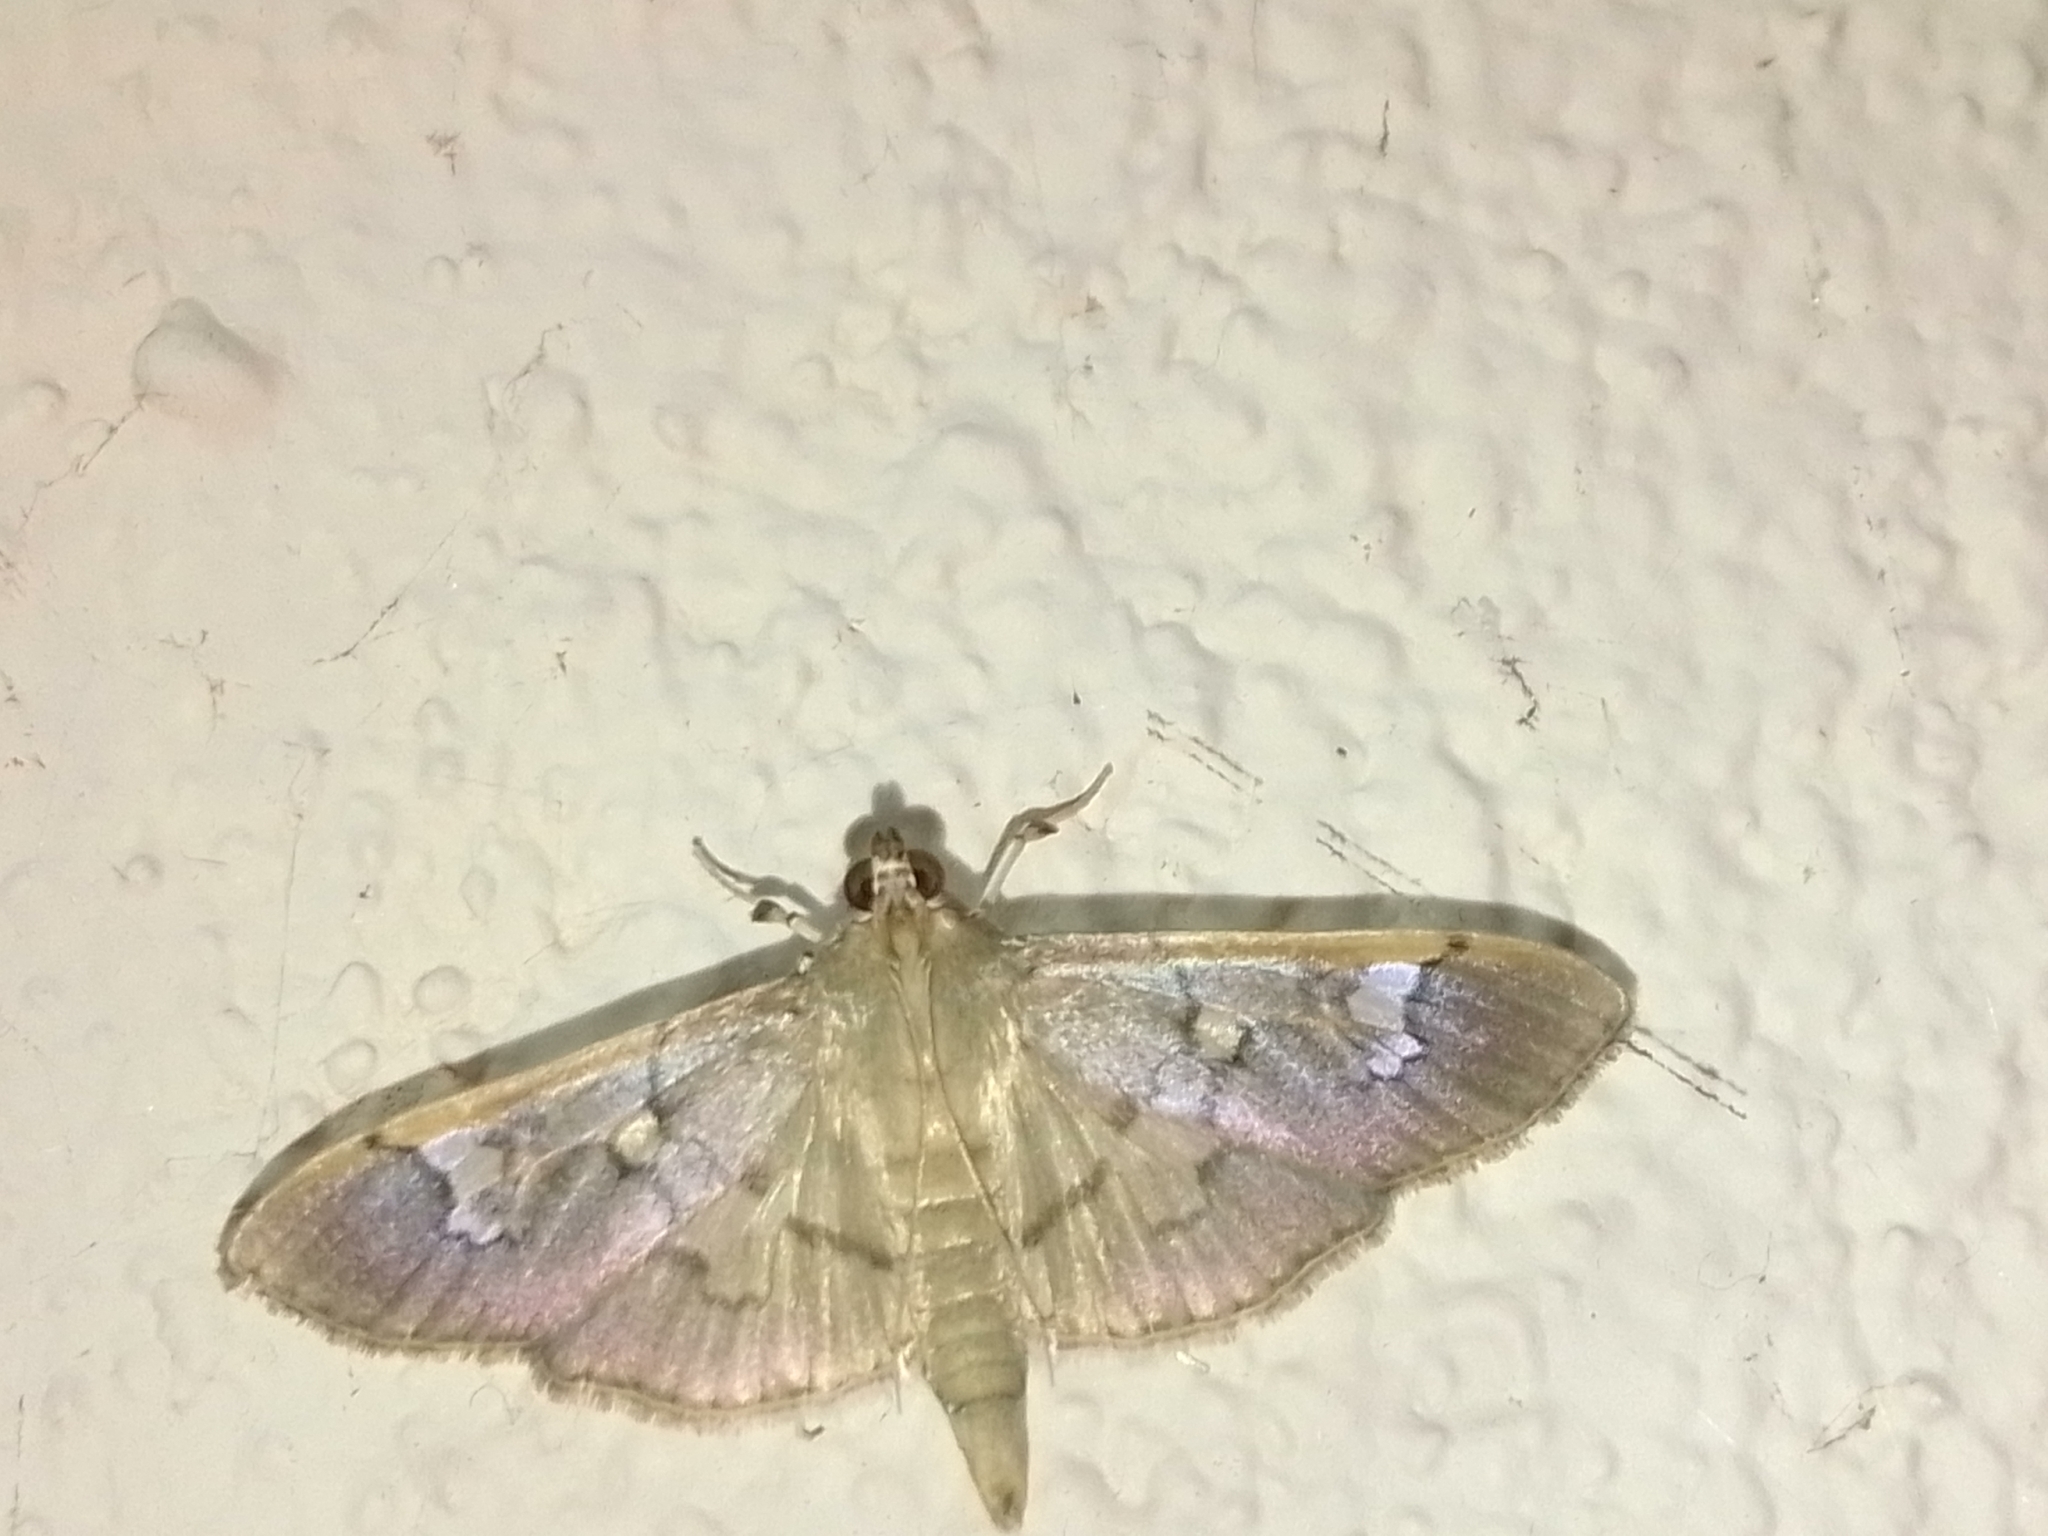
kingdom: Animalia
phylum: Arthropoda
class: Insecta
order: Lepidoptera
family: Crambidae
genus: Microthyris
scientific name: Microthyris prolongalis
